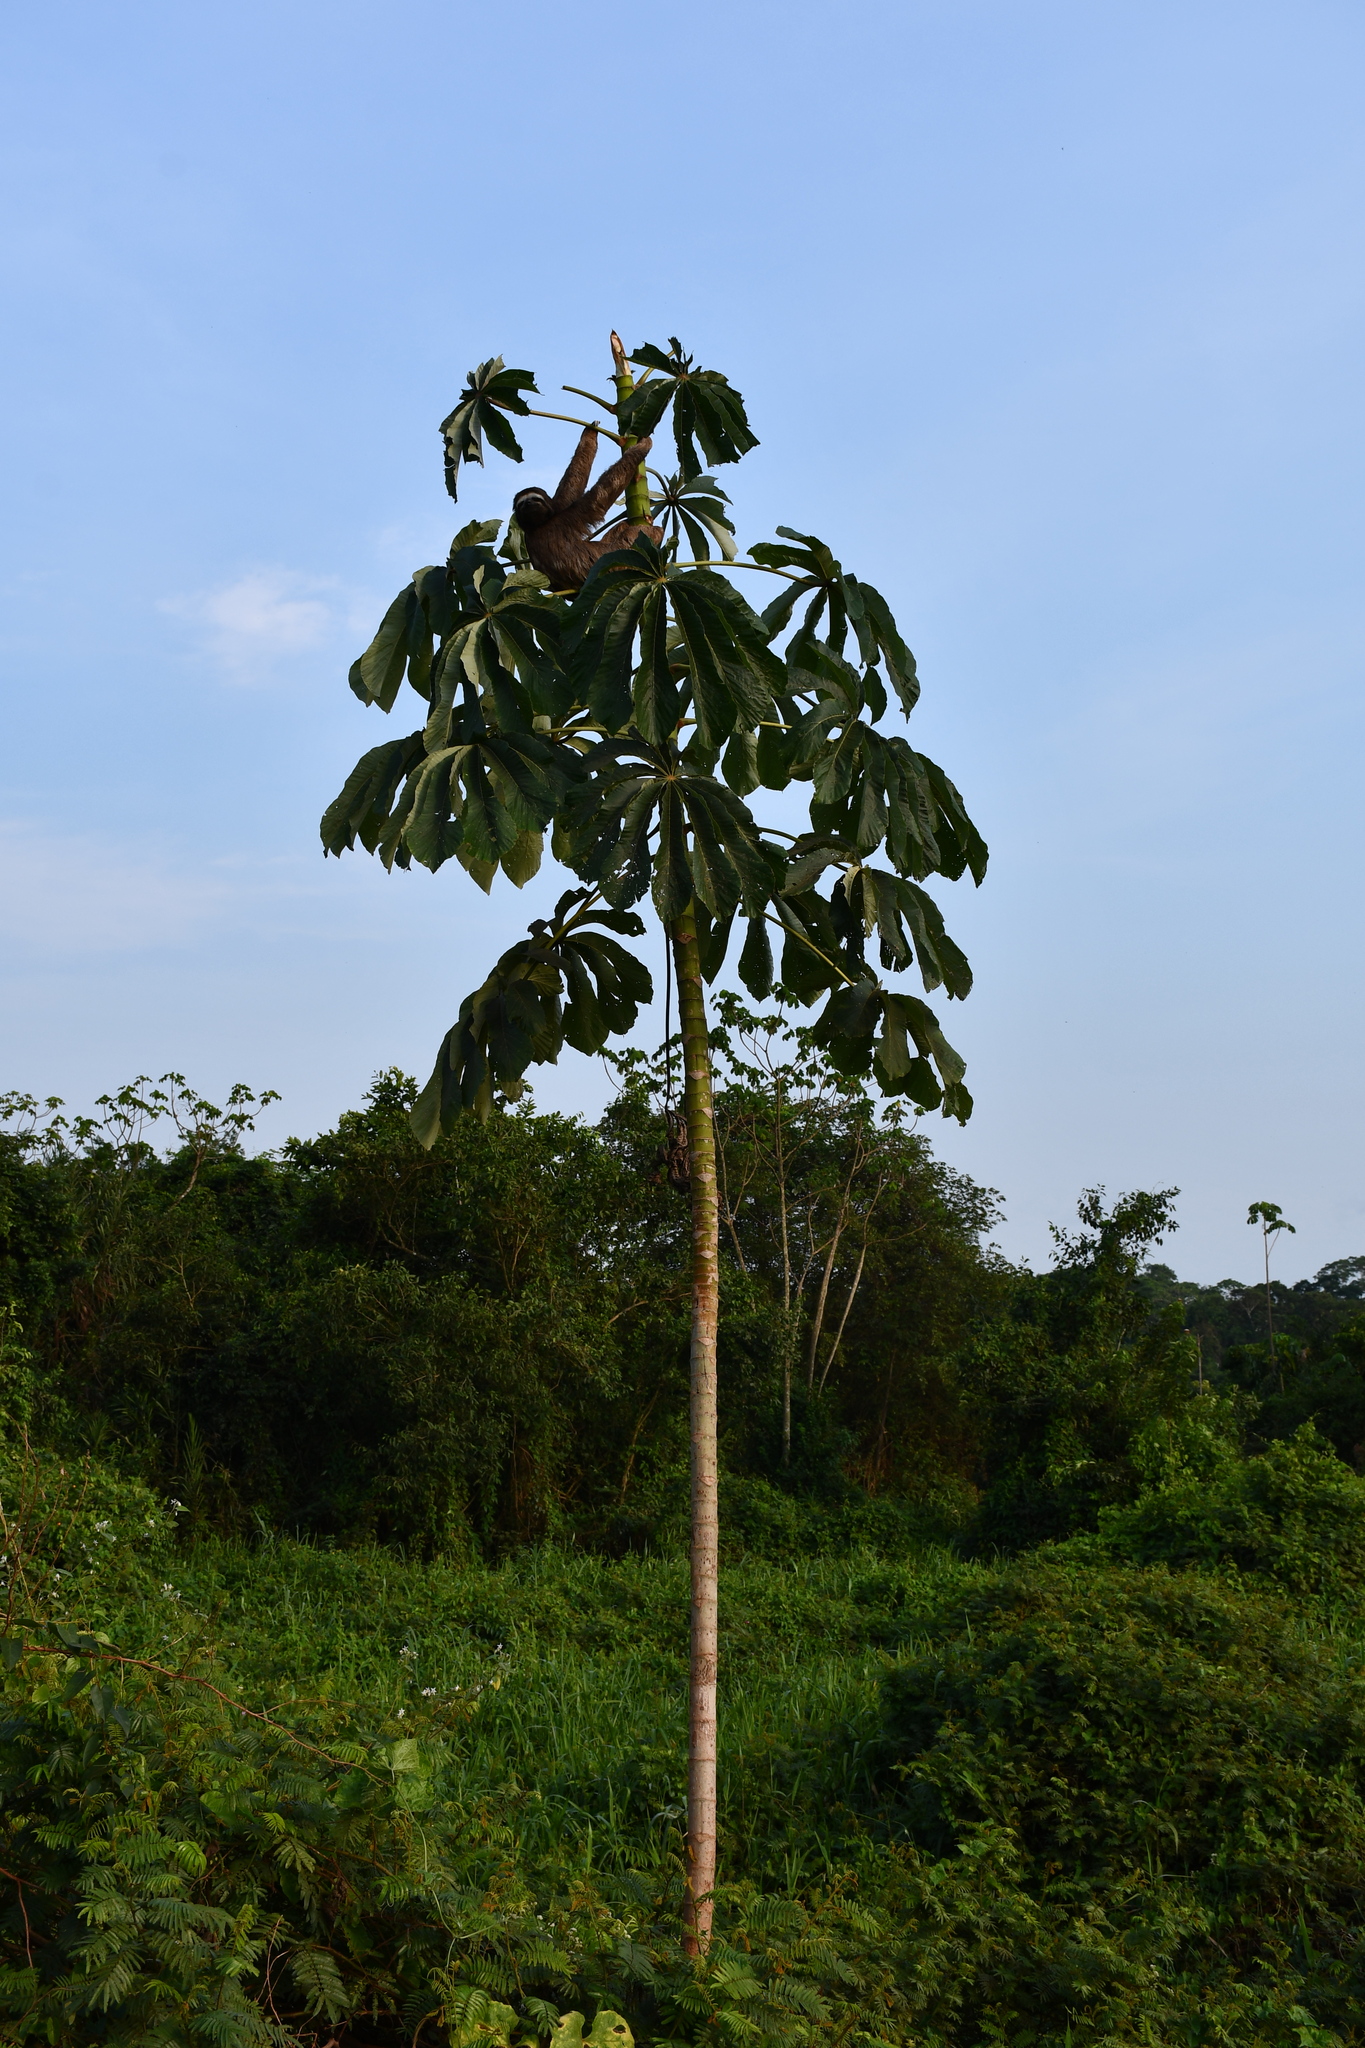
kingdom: Animalia
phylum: Chordata
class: Mammalia
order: Pilosa
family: Bradypodidae
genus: Bradypus
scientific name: Bradypus variegatus
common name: Brown-throated three-toed sloth
